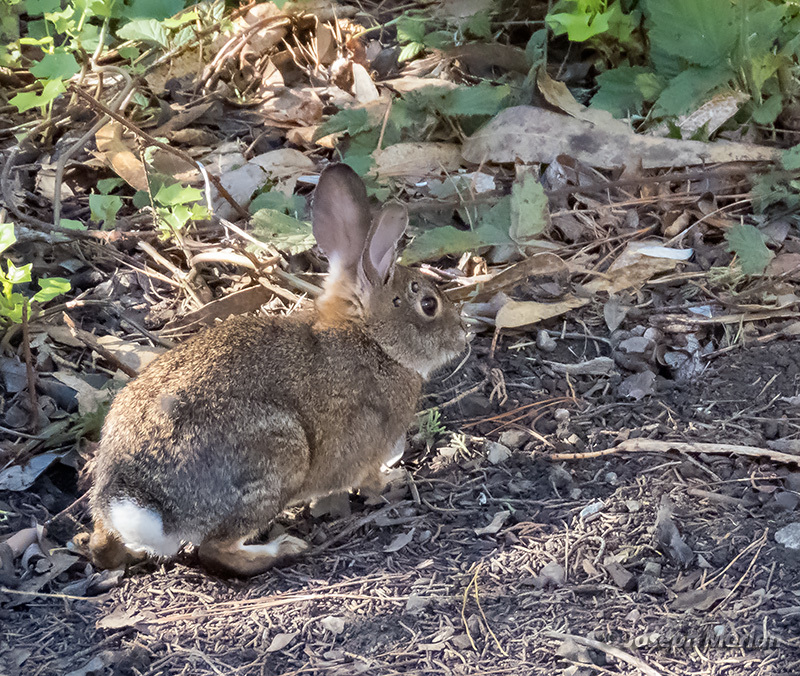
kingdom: Animalia
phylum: Chordata
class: Mammalia
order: Lagomorpha
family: Leporidae
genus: Sylvilagus
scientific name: Sylvilagus bachmani
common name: Brush rabbit
